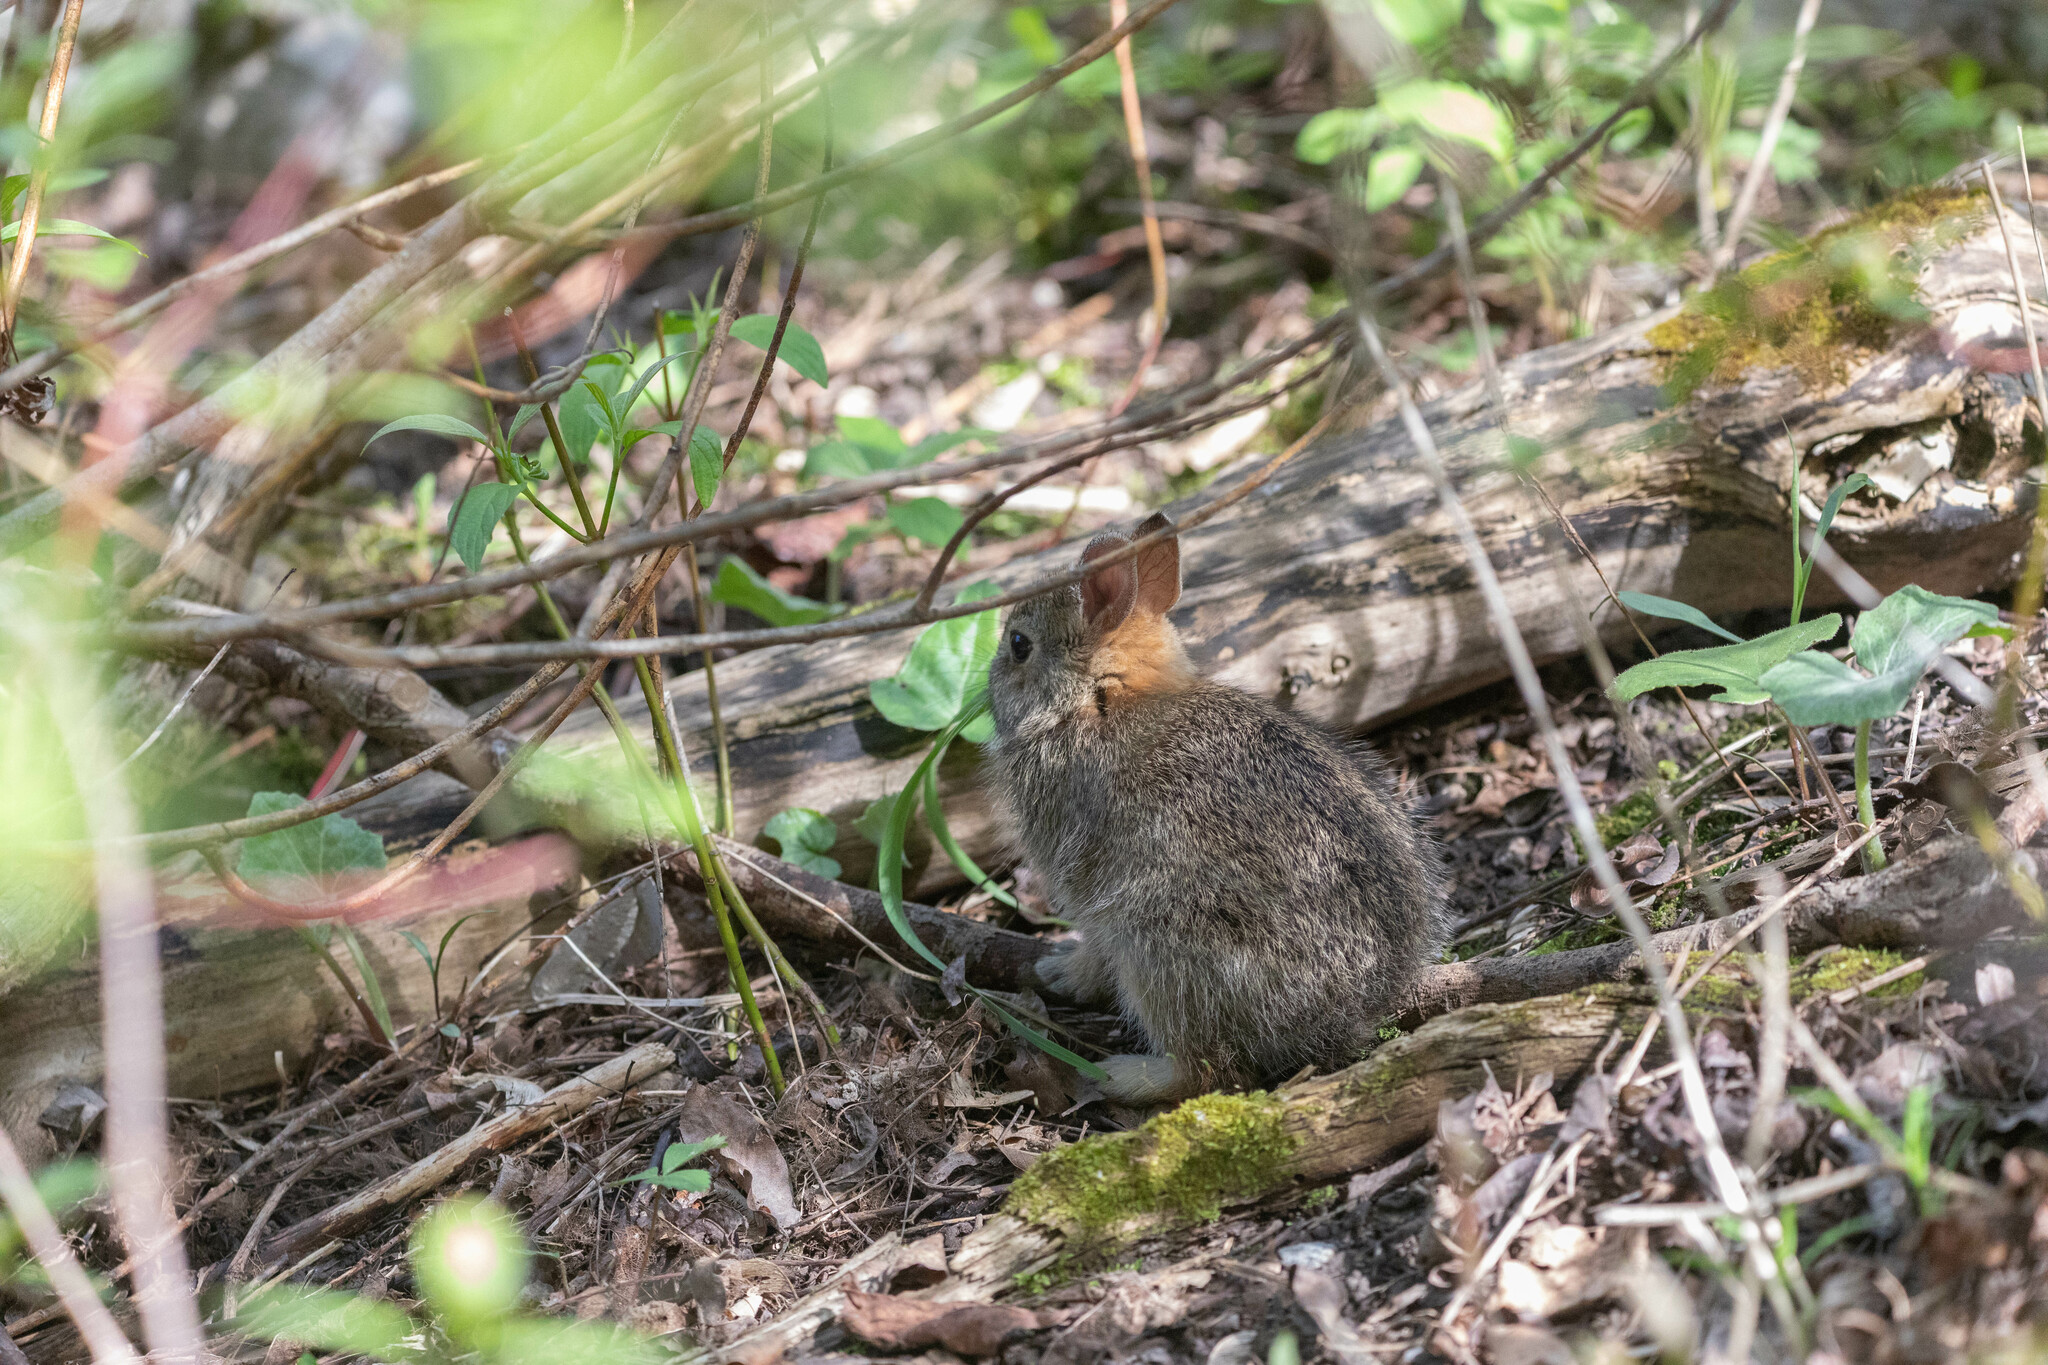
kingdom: Animalia
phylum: Chordata
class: Mammalia
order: Lagomorpha
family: Leporidae
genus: Sylvilagus
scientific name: Sylvilagus floridanus
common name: Eastern cottontail
